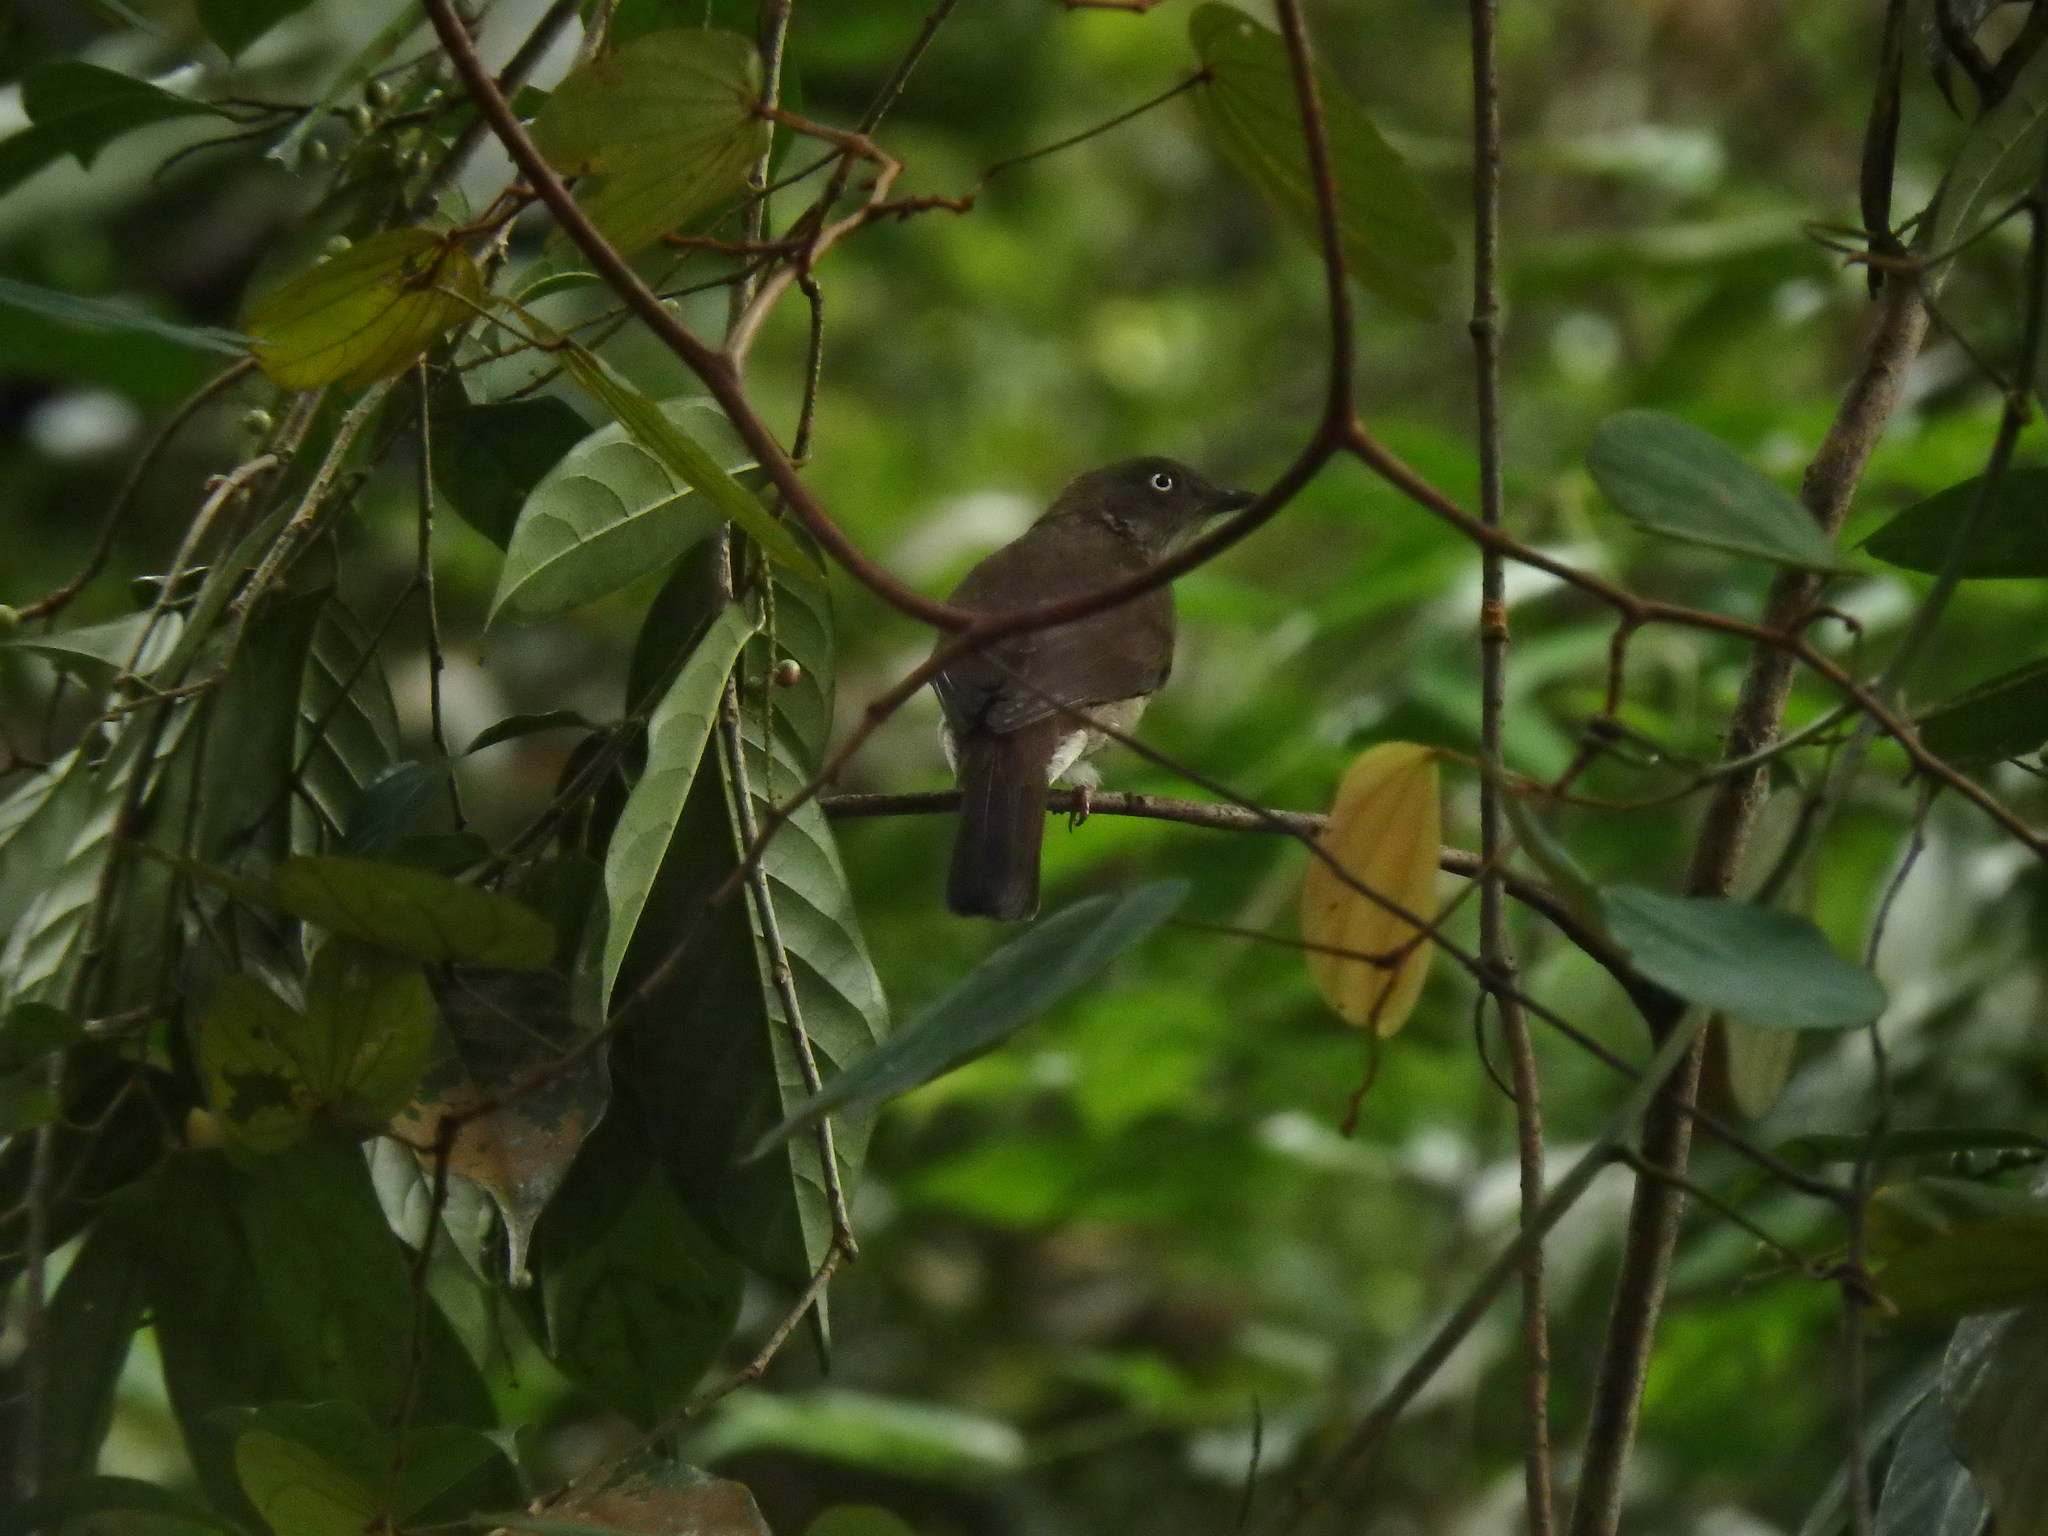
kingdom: Animalia
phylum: Chordata
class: Aves
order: Passeriformes
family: Pycnonotidae
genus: Pycnonotus
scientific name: Pycnonotus simplex
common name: Cream-vented bulbul
